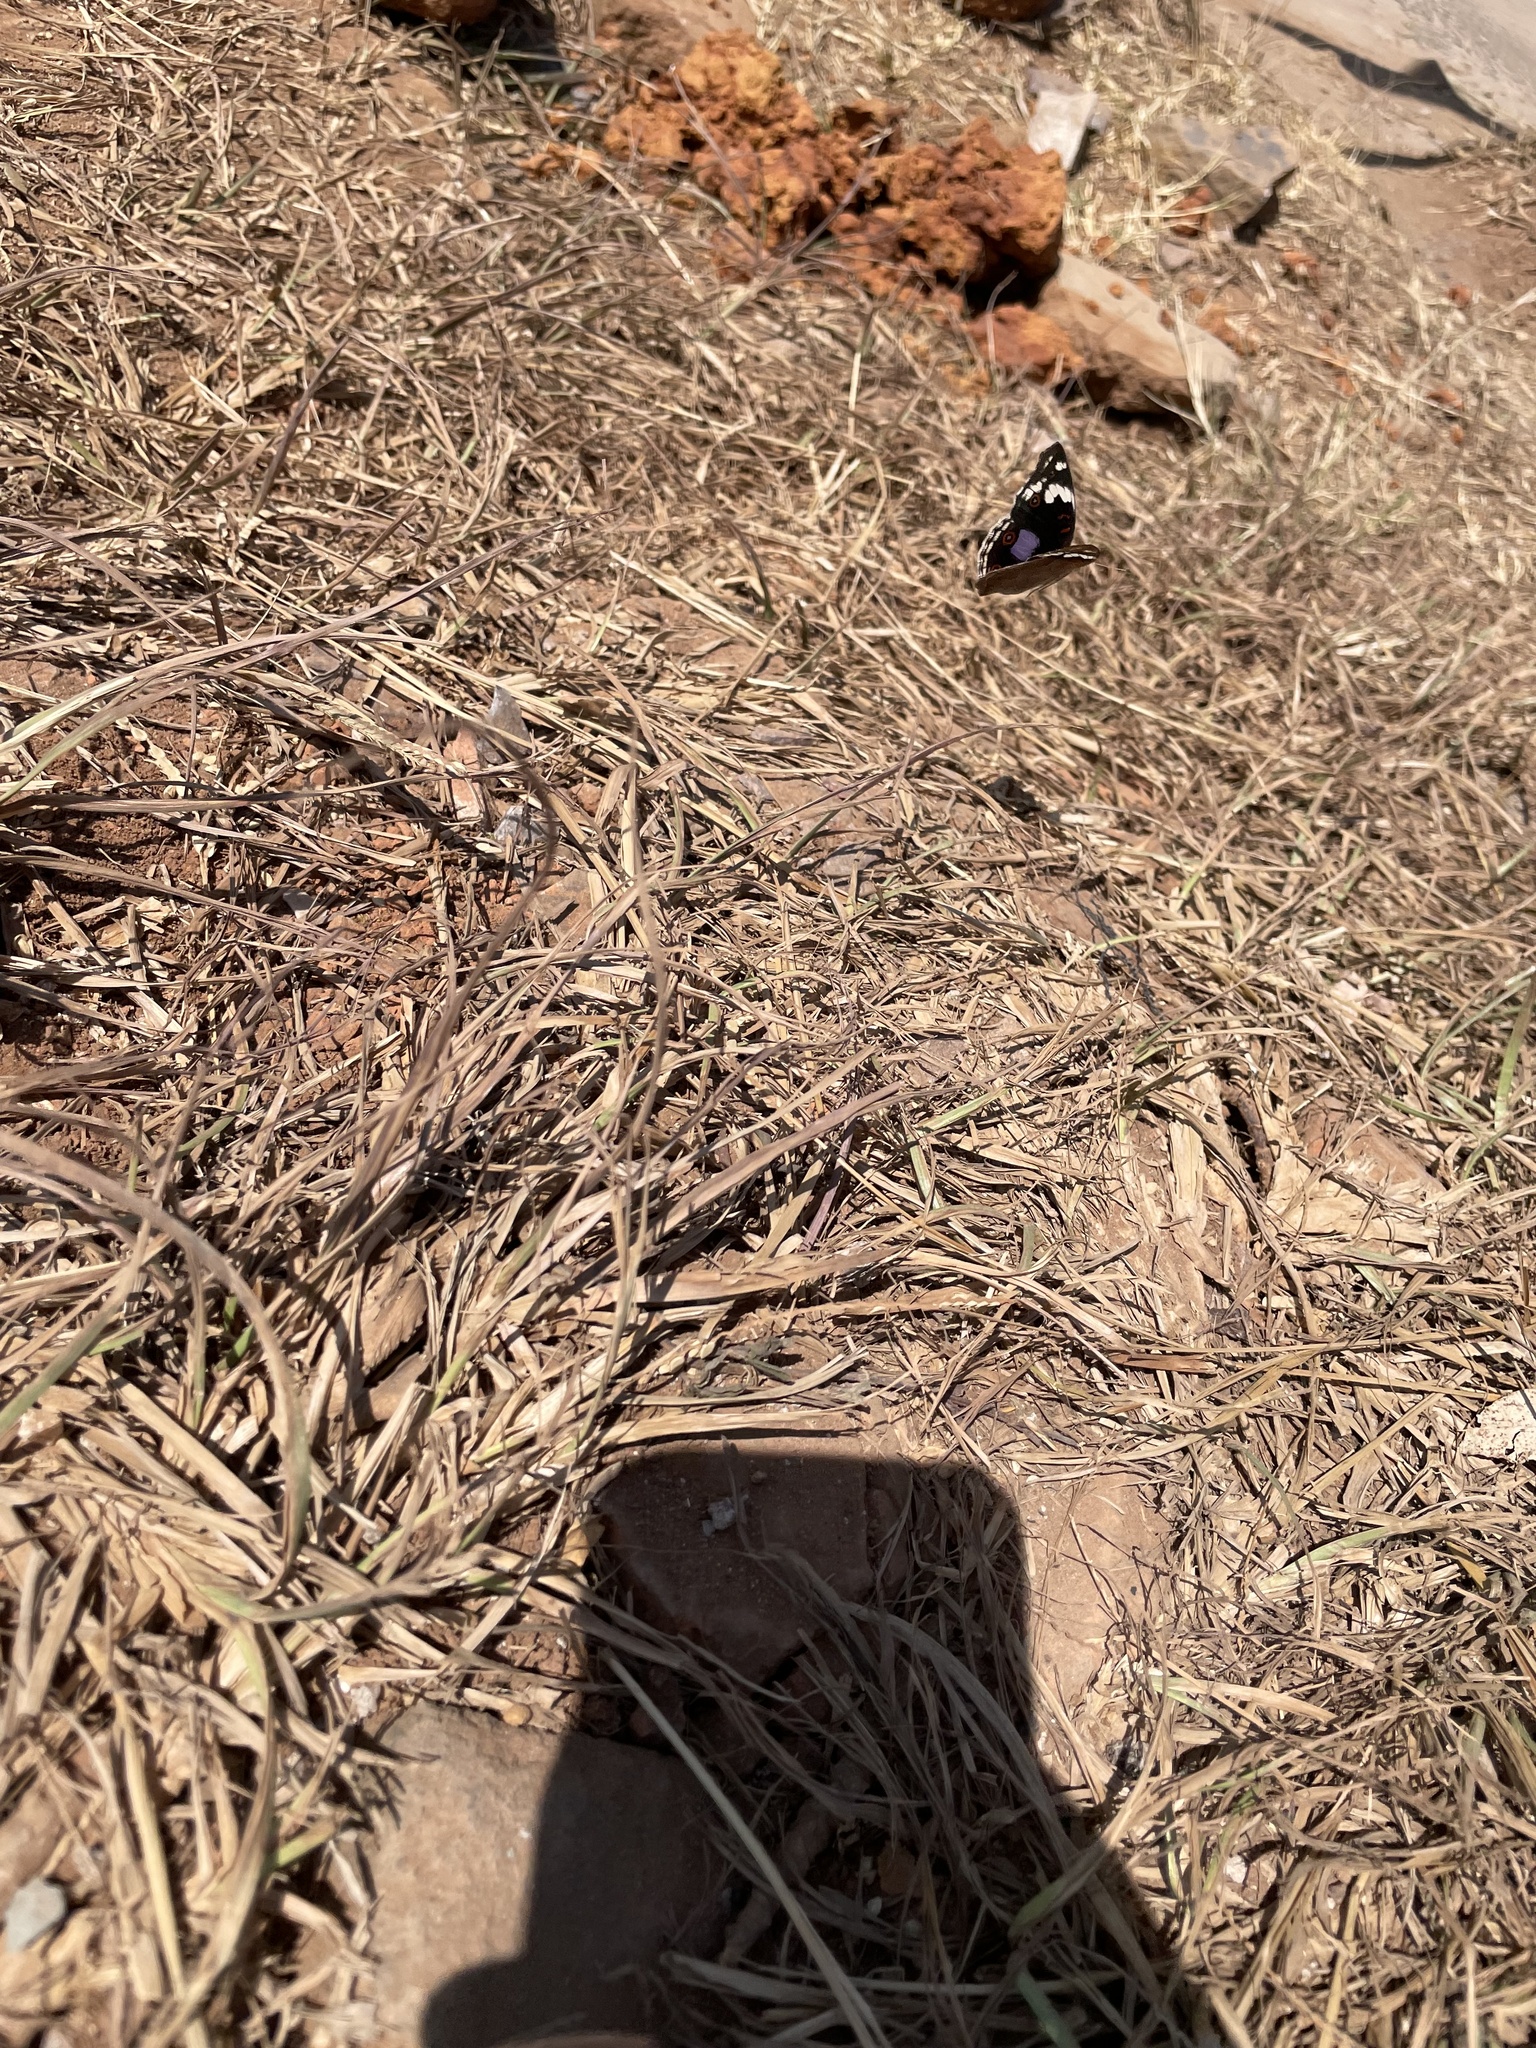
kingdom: Animalia
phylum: Arthropoda
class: Insecta
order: Lepidoptera
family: Nymphalidae
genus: Junonia
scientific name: Junonia oenone
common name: Dark blue pansy
